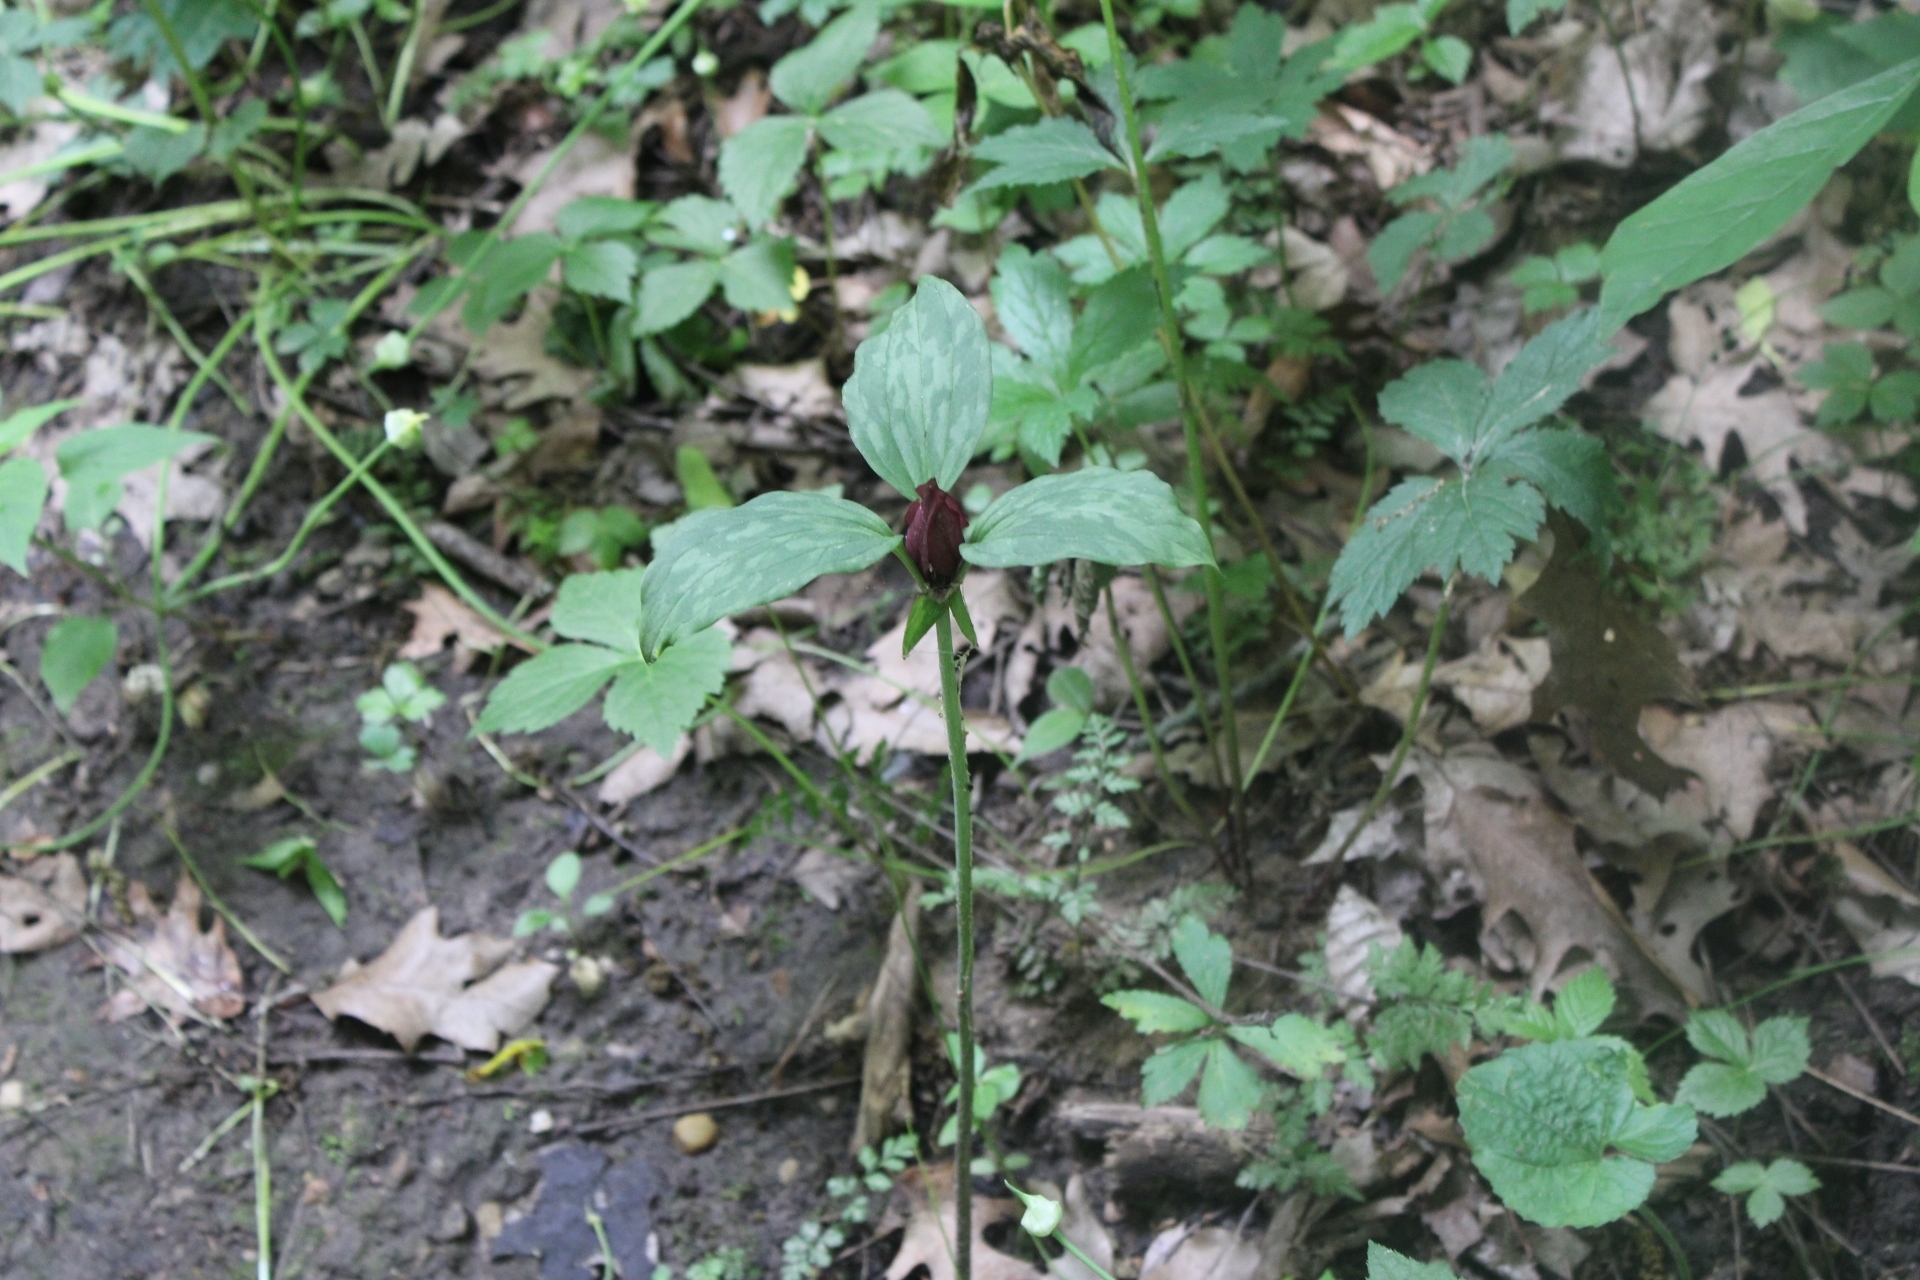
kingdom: Plantae
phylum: Tracheophyta
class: Liliopsida
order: Liliales
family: Melanthiaceae
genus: Trillium
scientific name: Trillium recurvatum
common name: Bloody butcher
